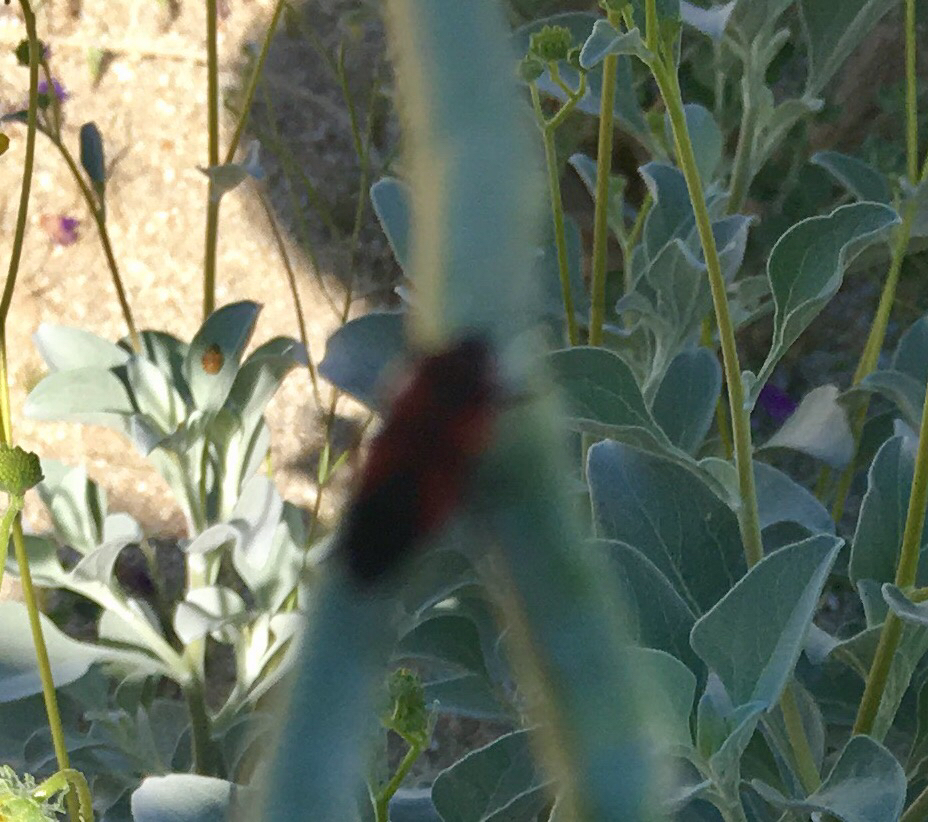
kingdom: Animalia
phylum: Arthropoda
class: Insecta
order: Hemiptera
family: Lygaeidae
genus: Oncopeltus
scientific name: Oncopeltus fasciatus
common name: Large milkweed bug
